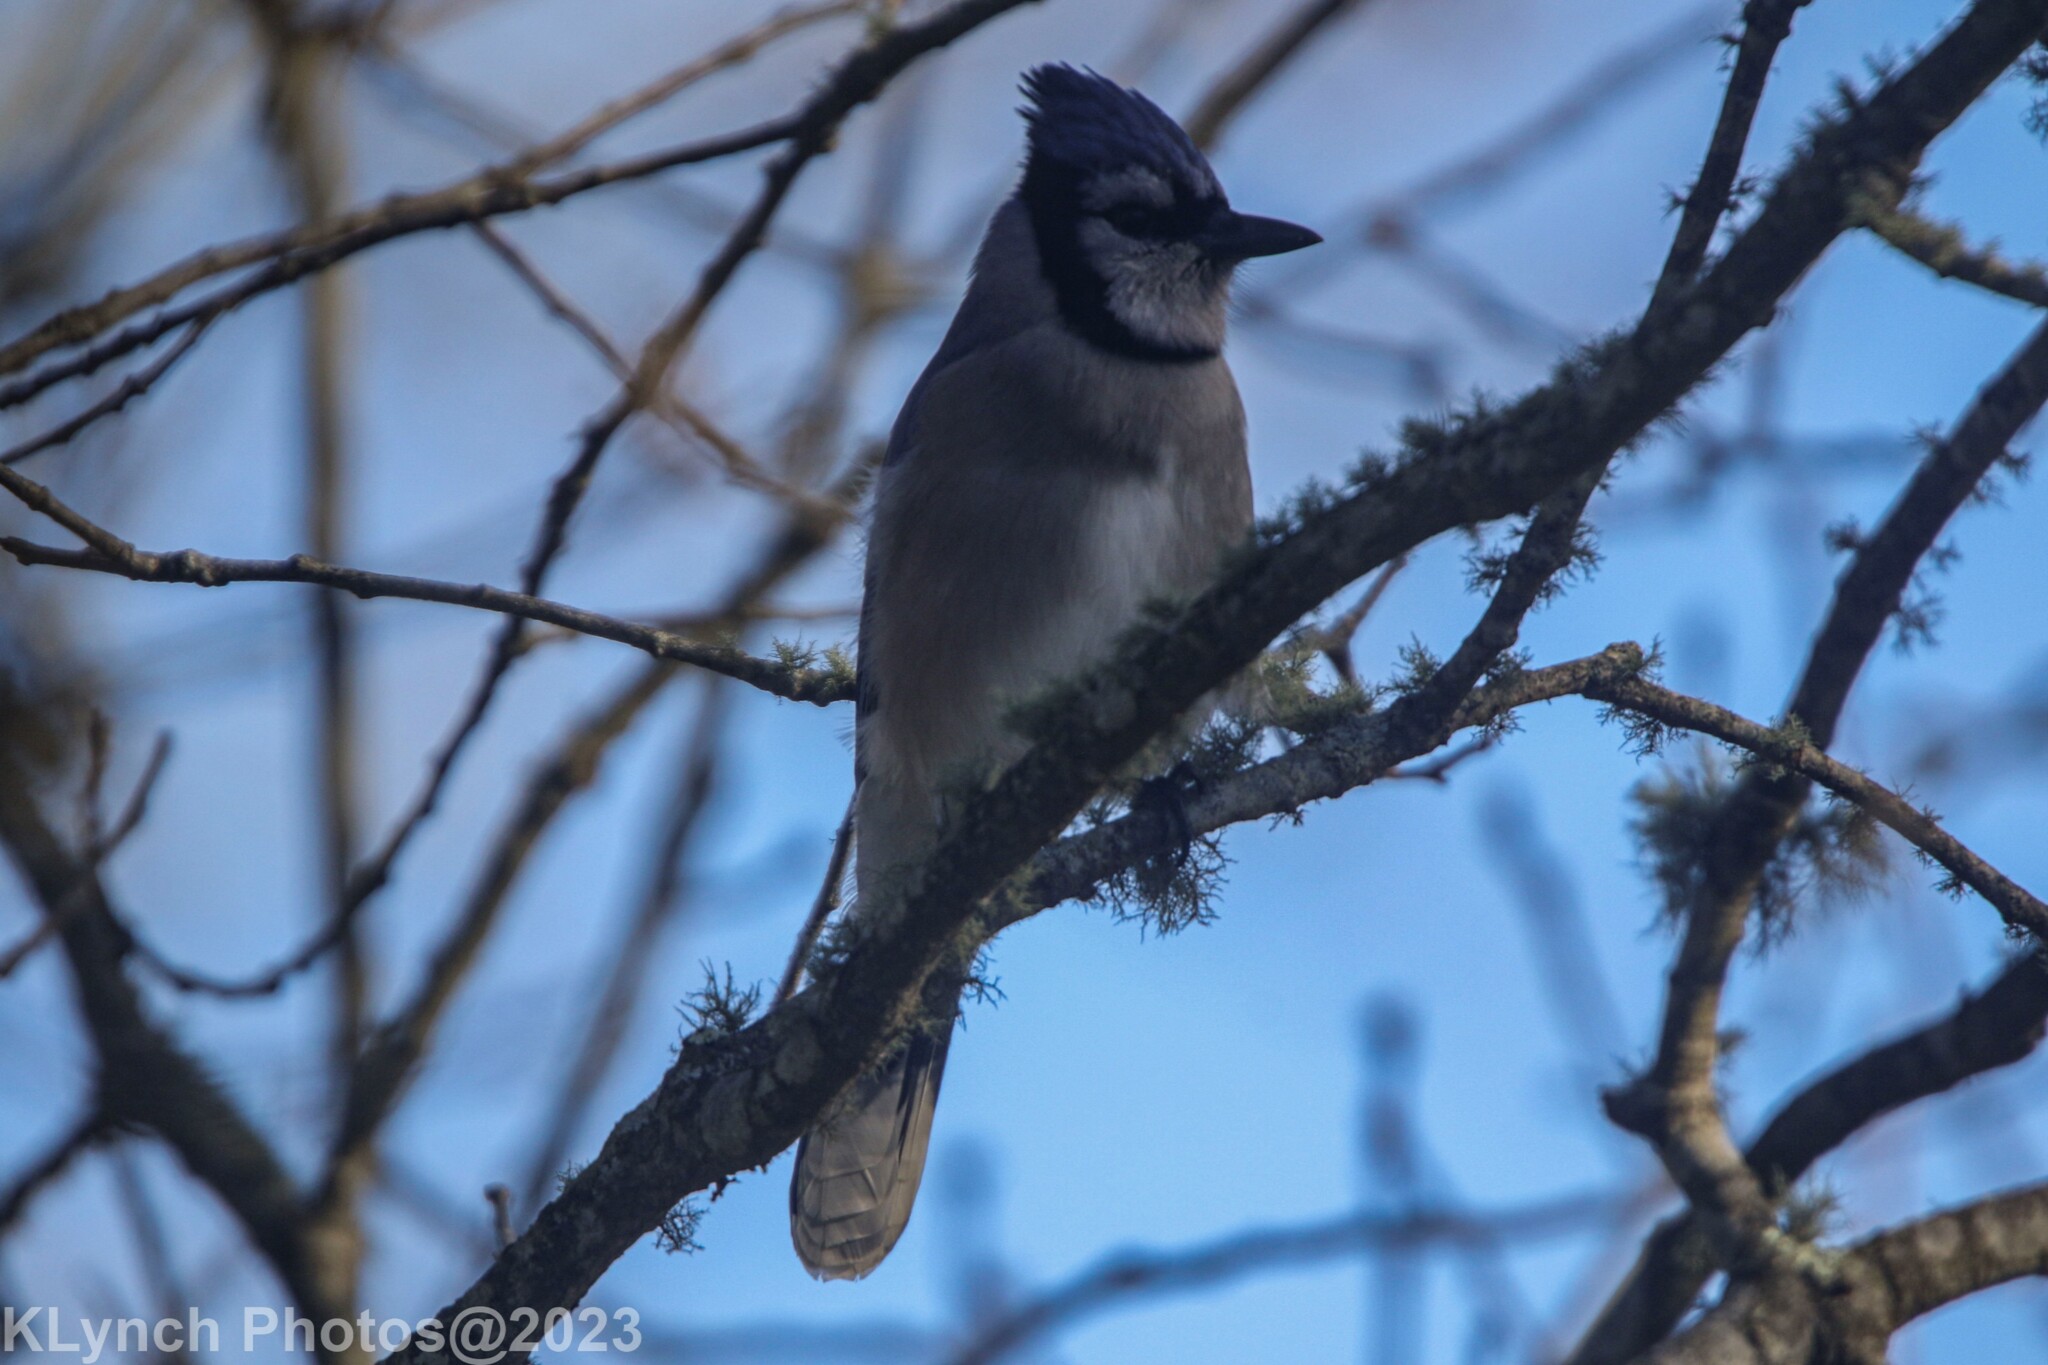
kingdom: Animalia
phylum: Chordata
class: Aves
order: Passeriformes
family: Corvidae
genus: Cyanocitta
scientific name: Cyanocitta cristata
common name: Blue jay
